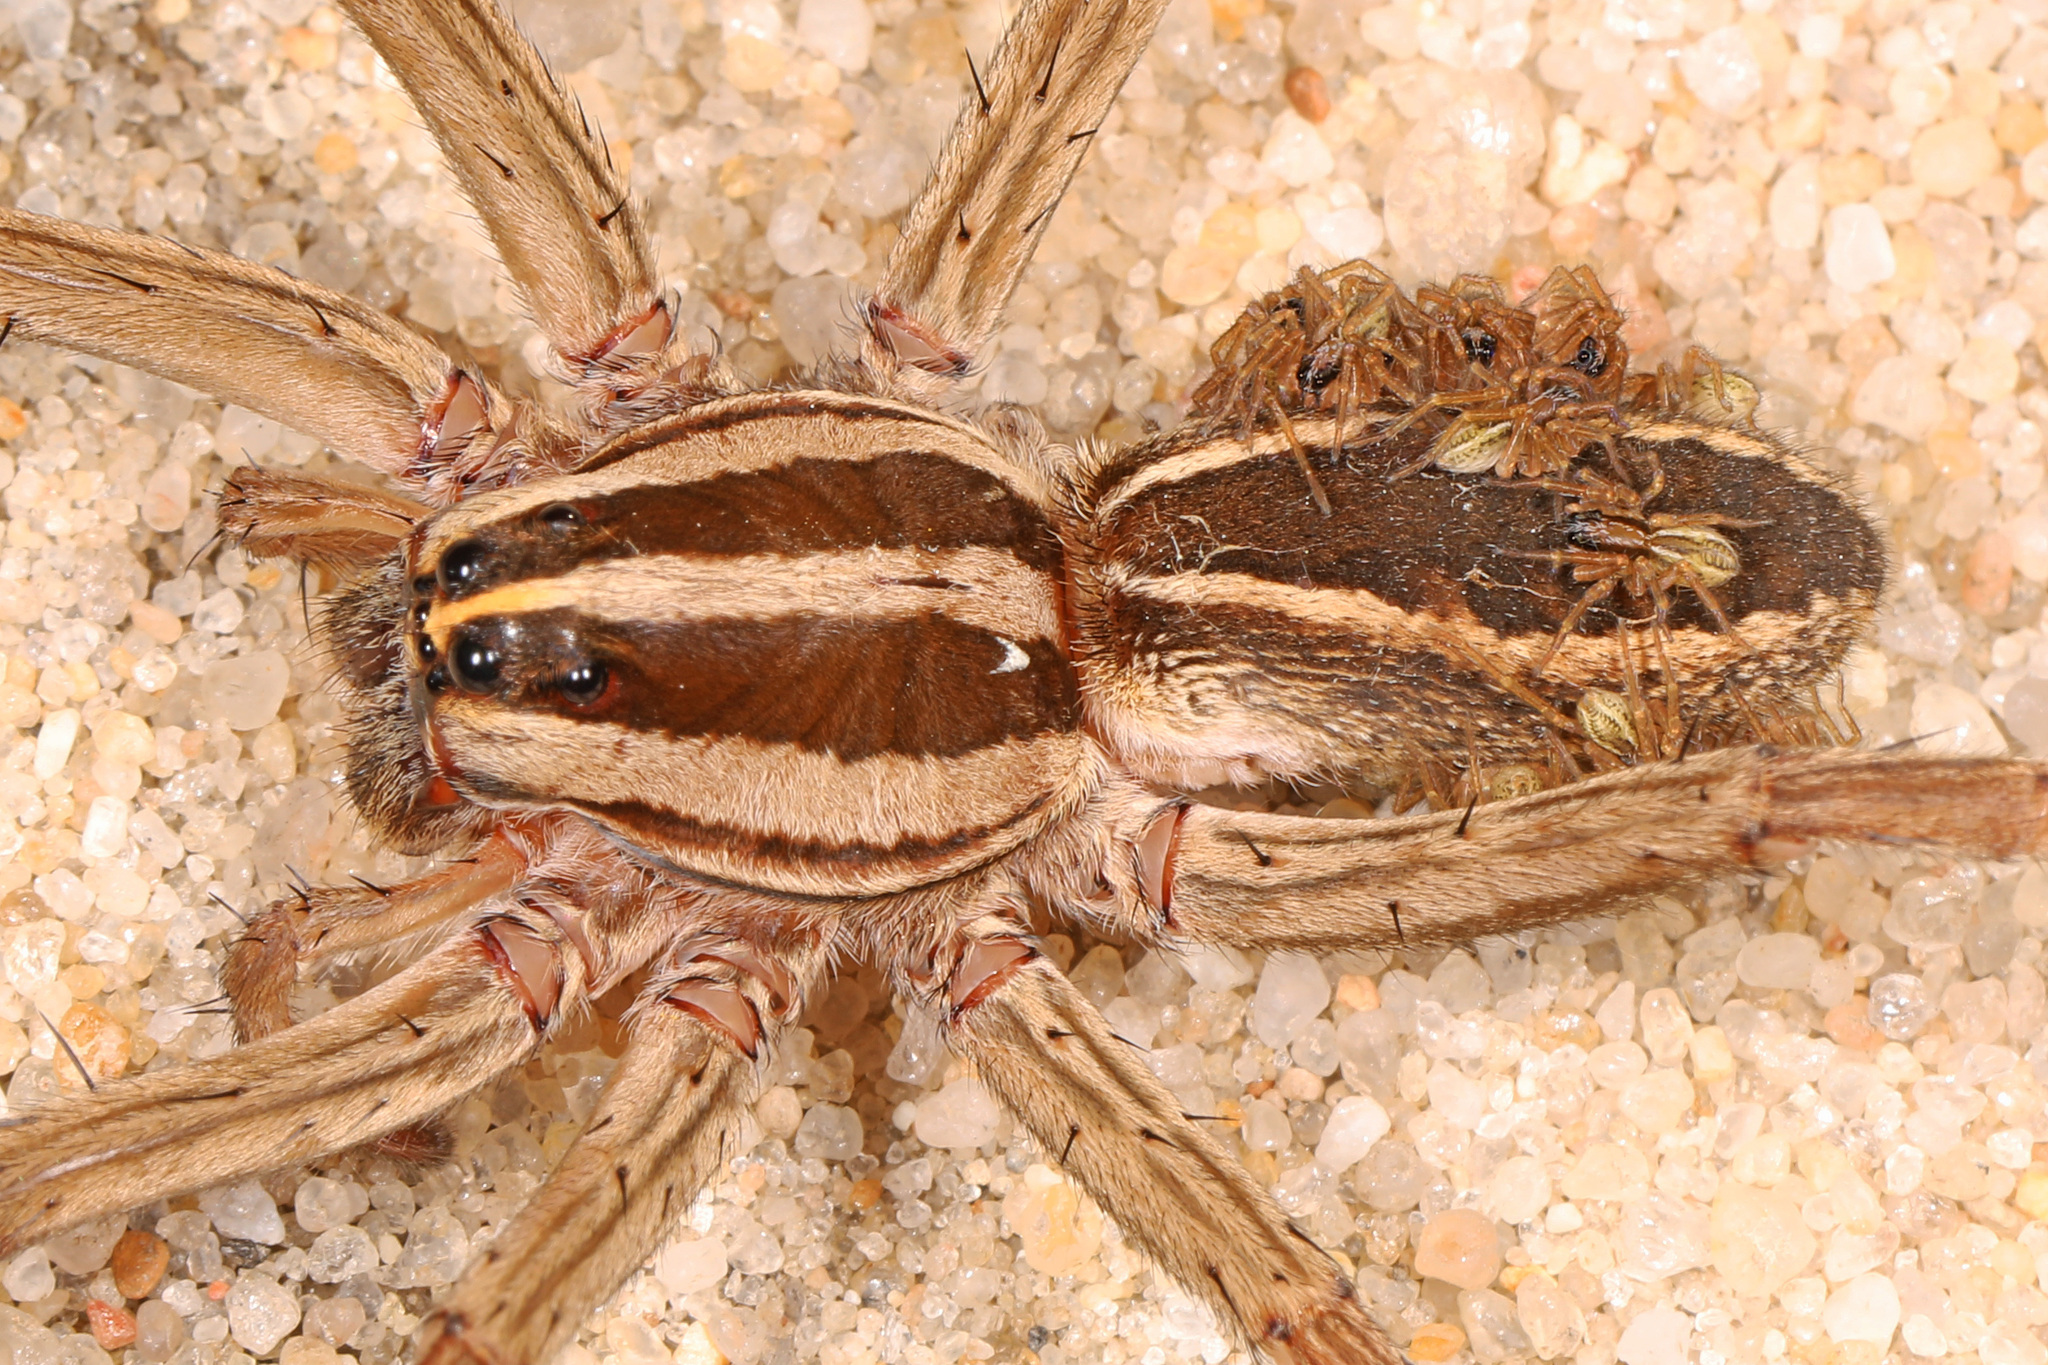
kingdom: Animalia
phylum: Arthropoda
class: Arachnida
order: Araneae
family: Lycosidae
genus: Rabidosa
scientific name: Rabidosa rabida
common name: Rabid wolf spider
